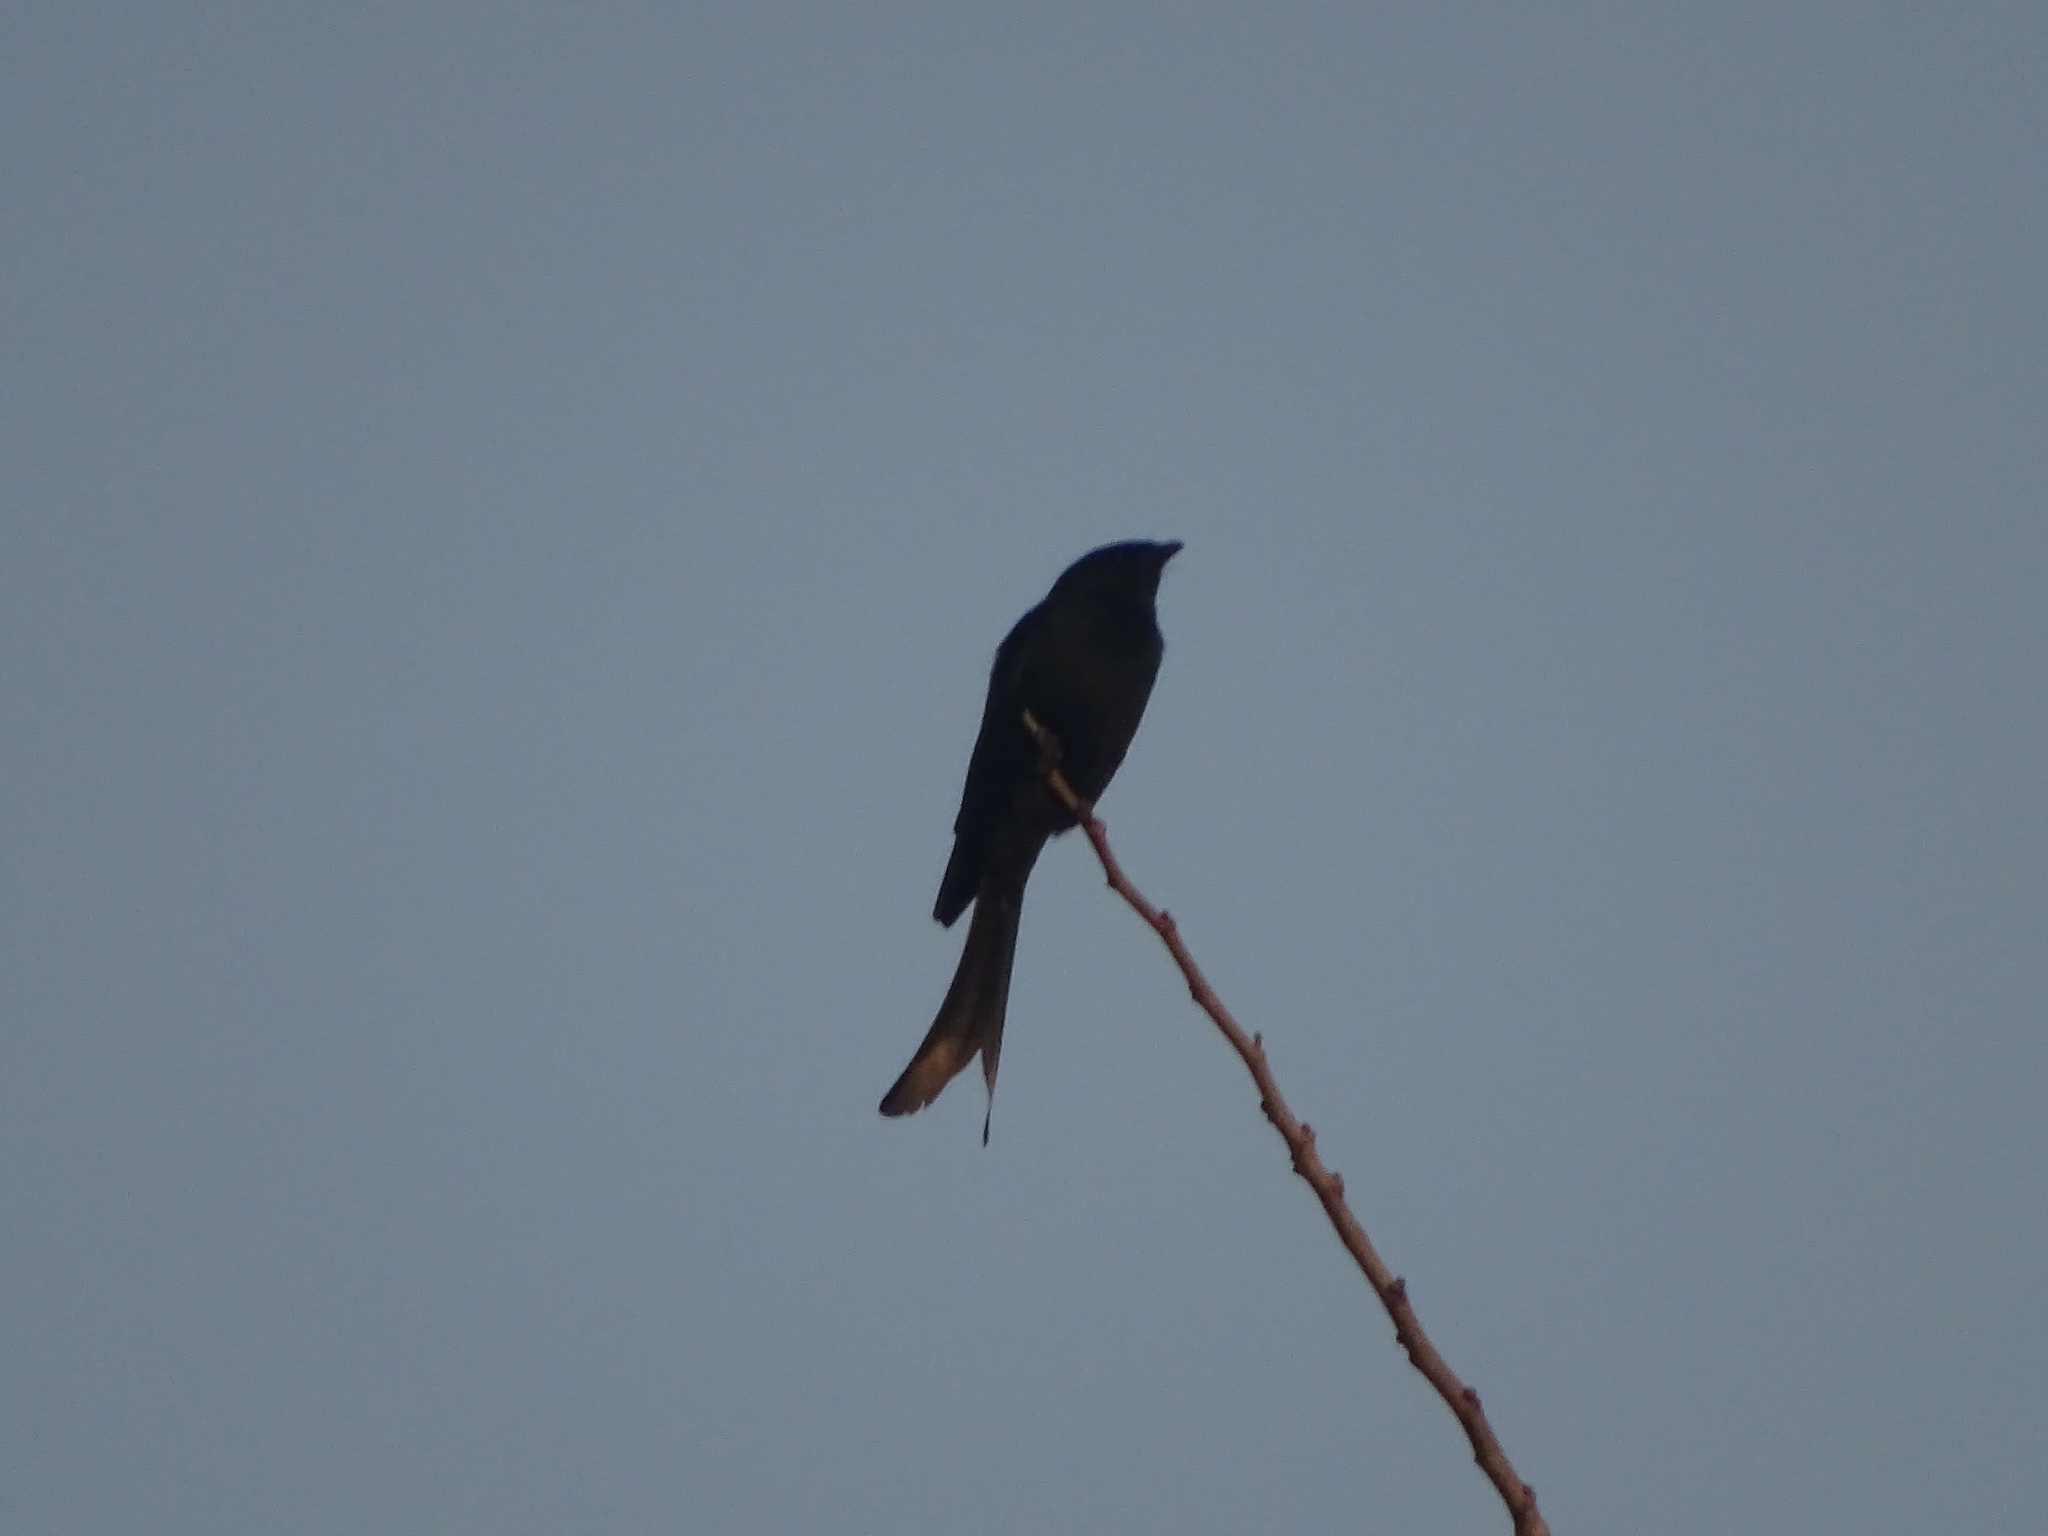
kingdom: Animalia
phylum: Chordata
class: Aves
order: Passeriformes
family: Dicruridae
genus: Dicrurus
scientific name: Dicrurus macrocercus
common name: Black drongo
